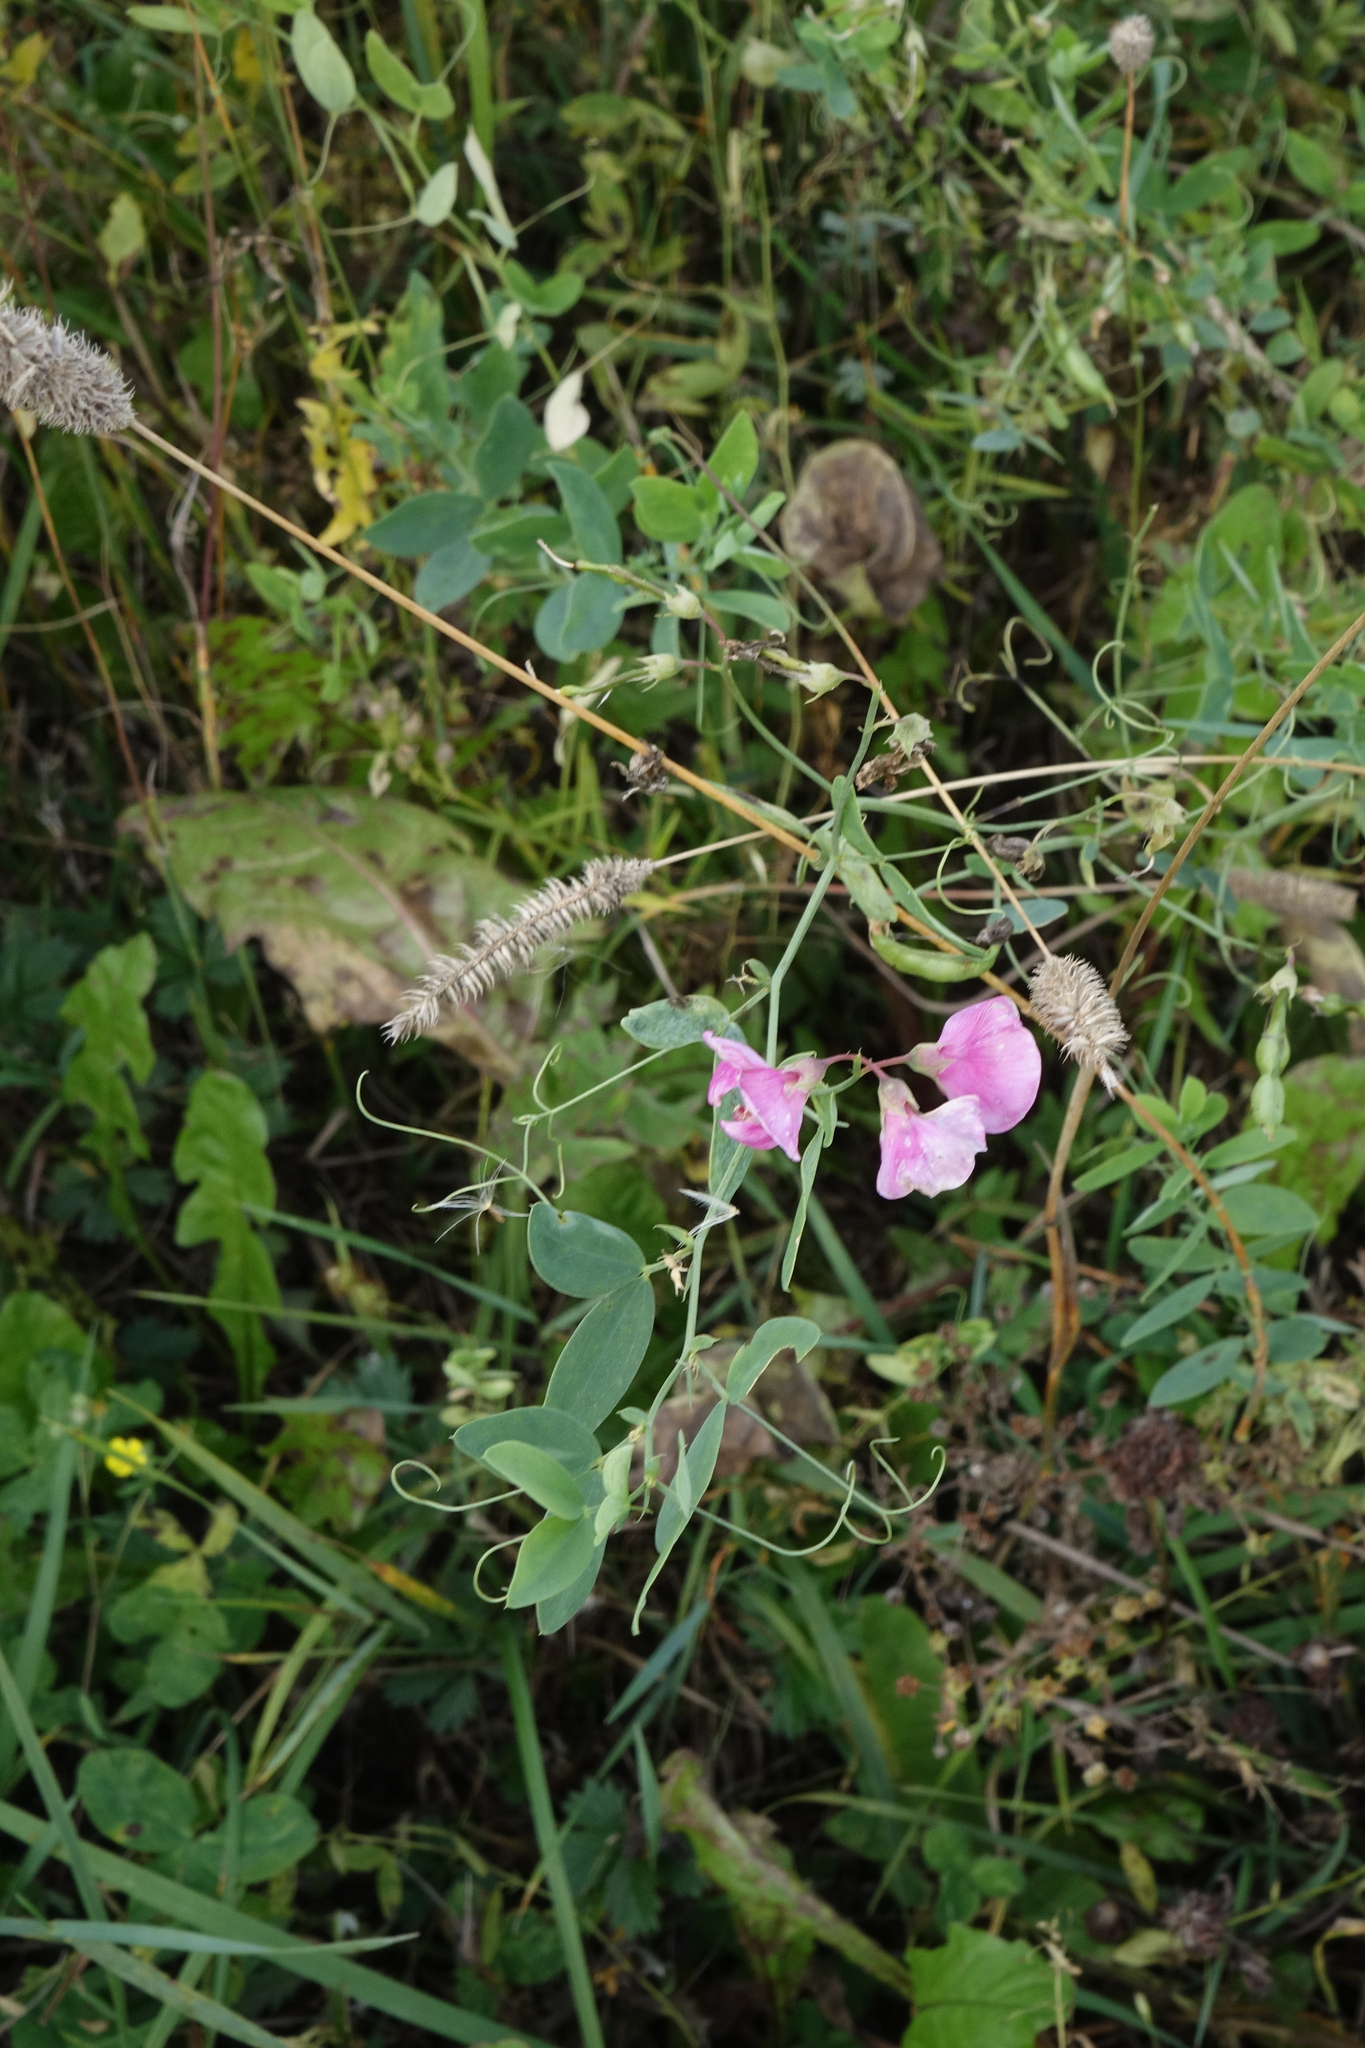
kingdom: Plantae
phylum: Tracheophyta
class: Magnoliopsida
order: Fabales
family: Fabaceae
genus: Lathyrus
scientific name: Lathyrus tuberosus
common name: Tuberous pea
